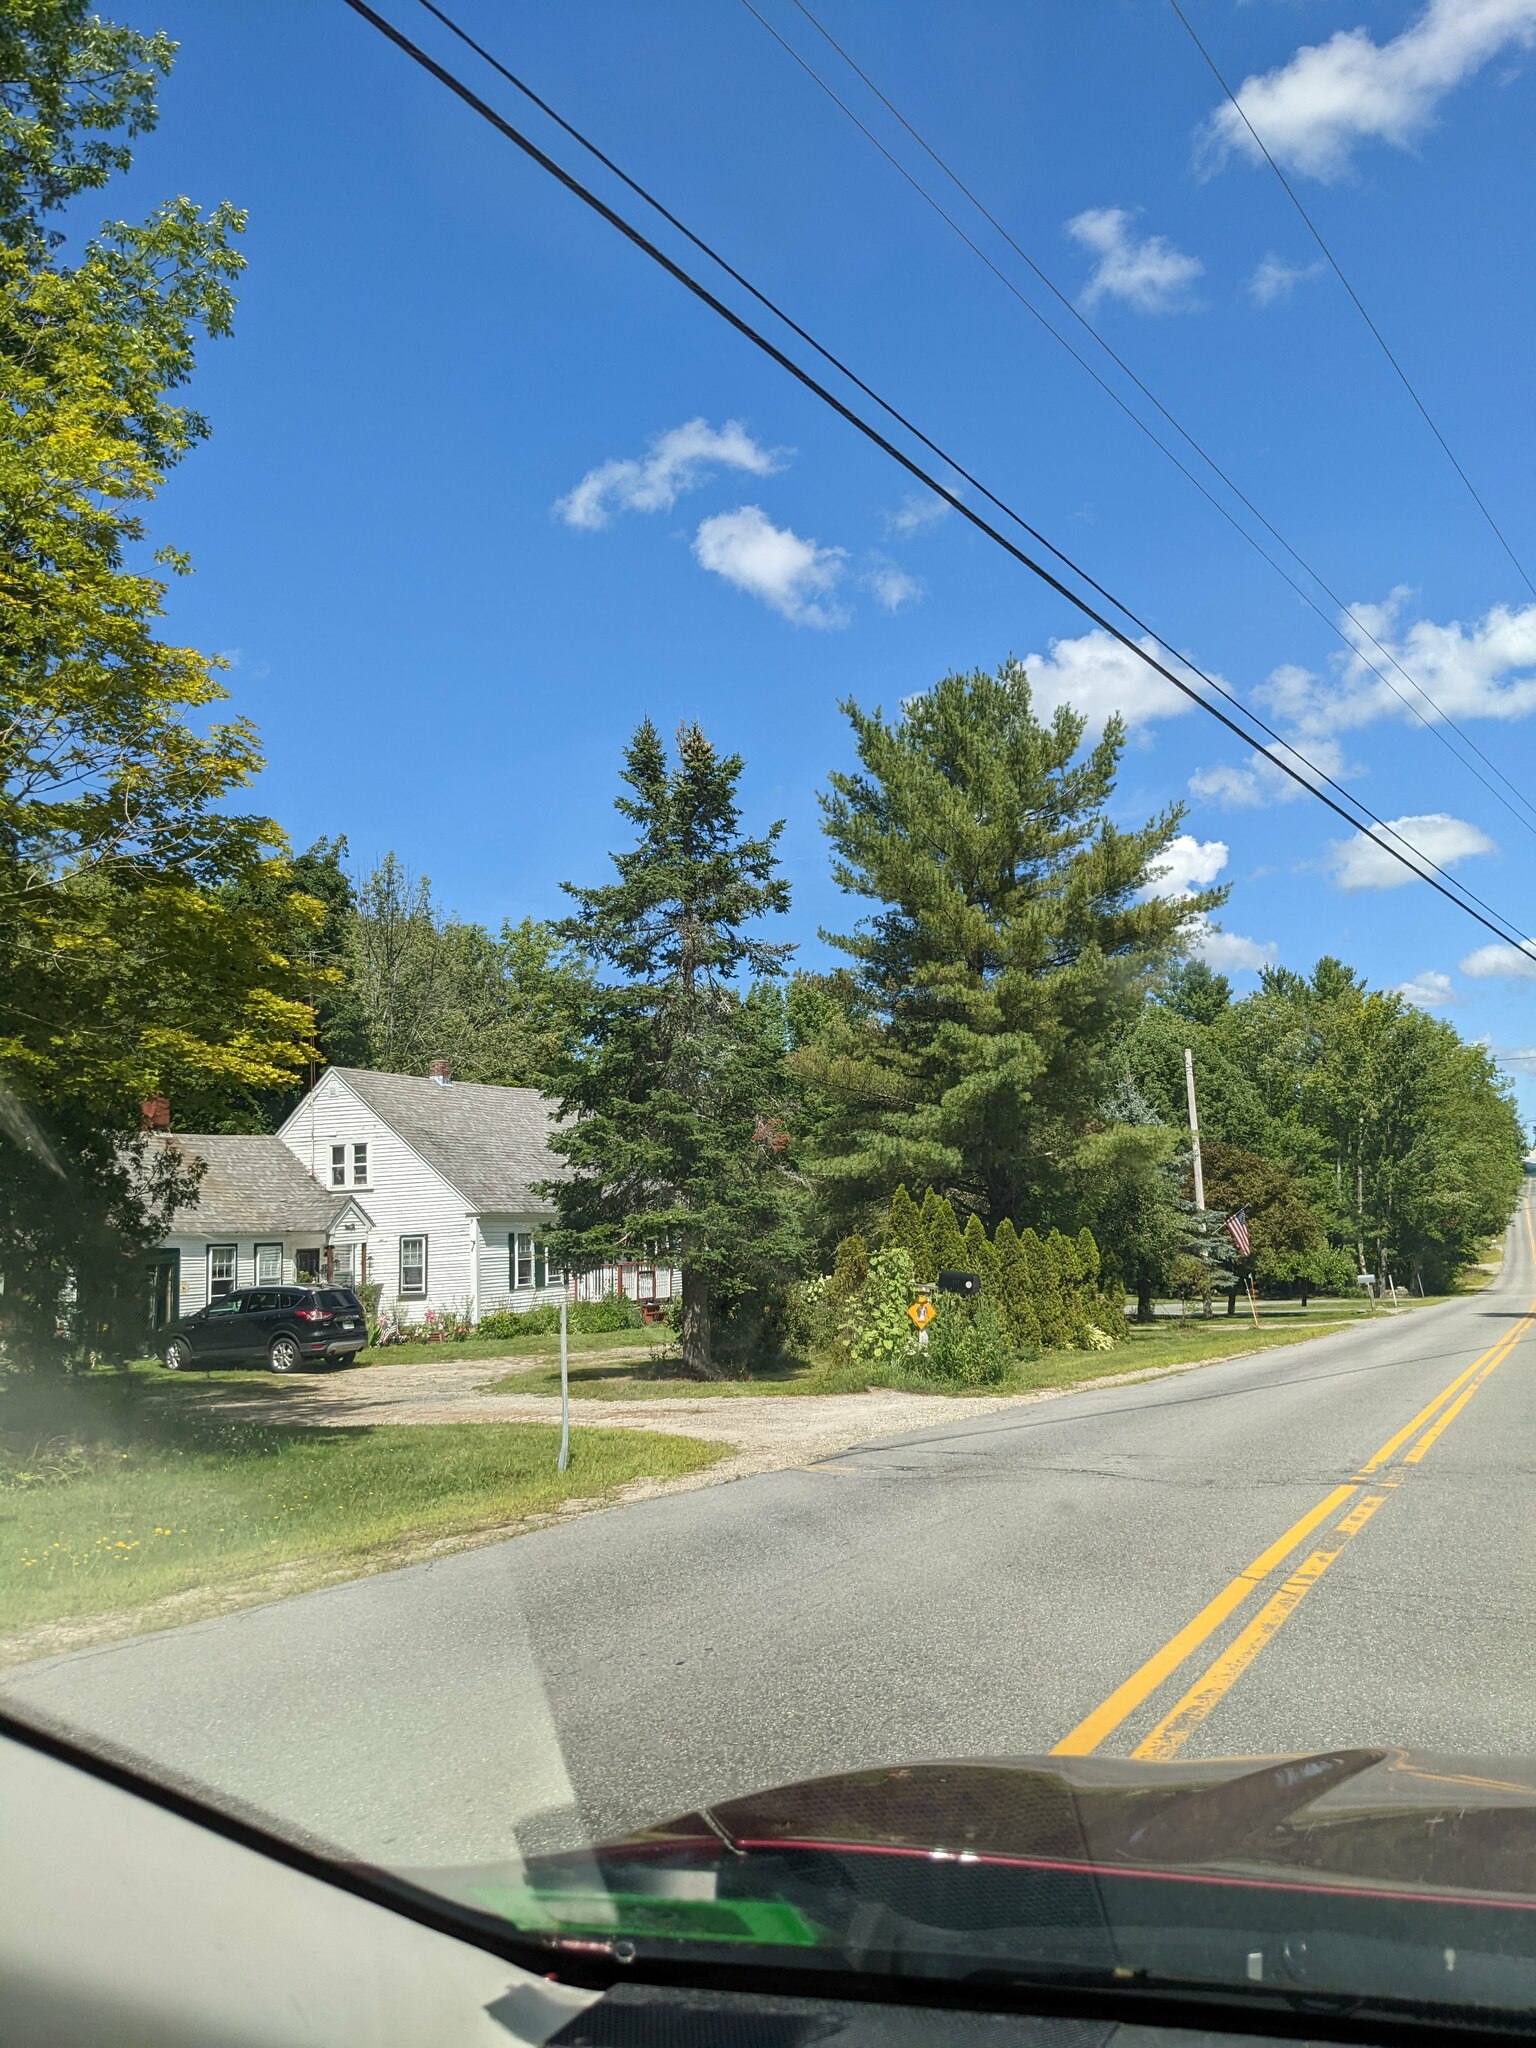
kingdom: Plantae
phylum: Tracheophyta
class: Pinopsida
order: Pinales
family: Pinaceae
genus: Pinus
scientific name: Pinus strobus
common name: Weymouth pine
